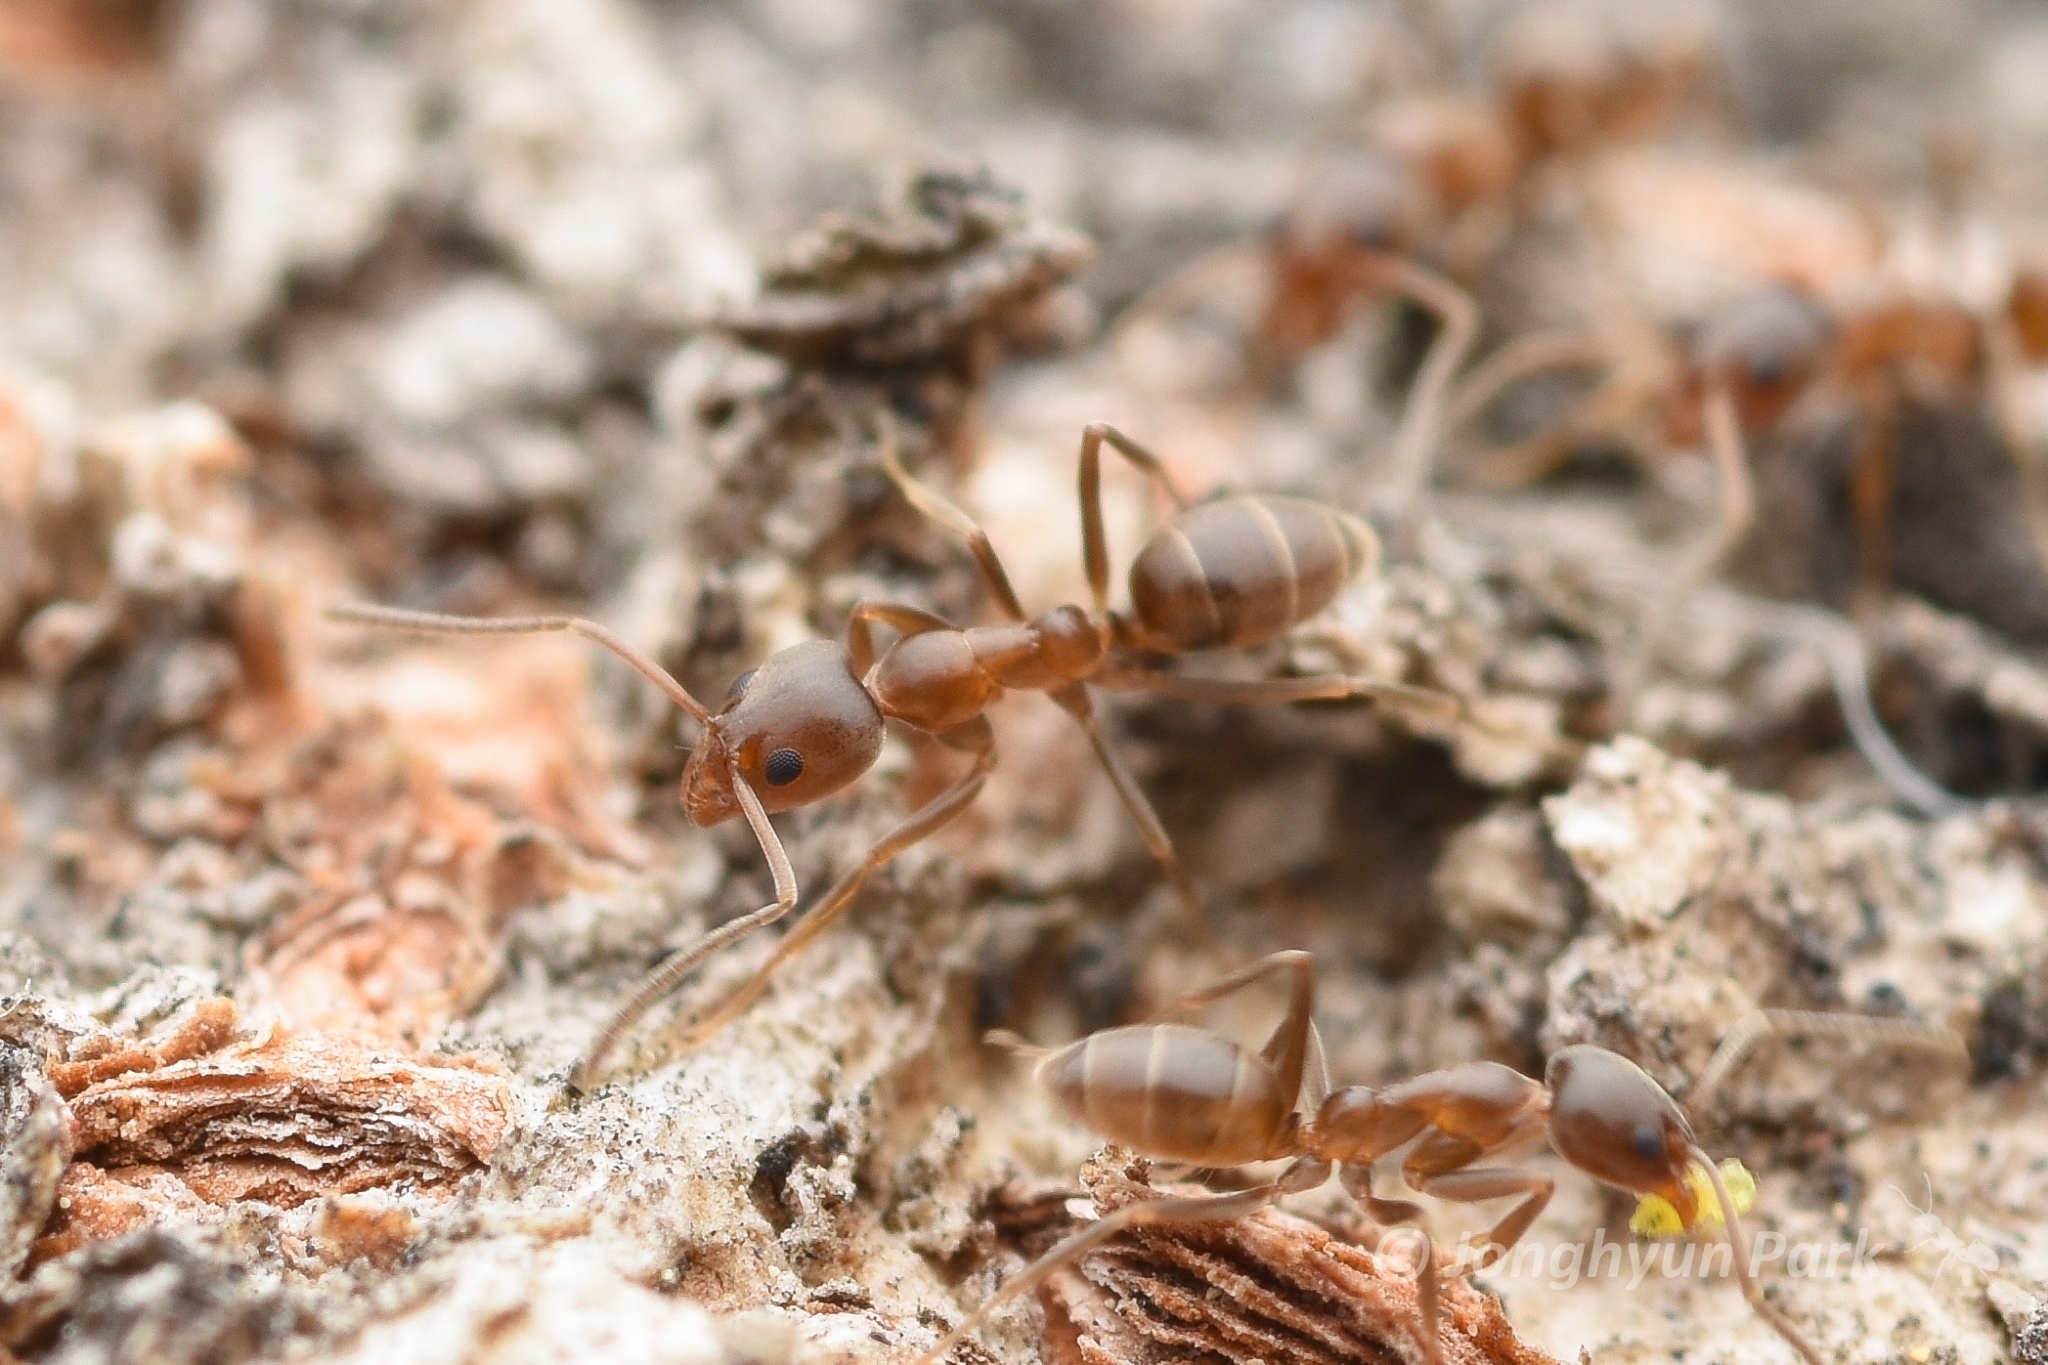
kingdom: Animalia
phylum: Arthropoda
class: Insecta
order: Hymenoptera
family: Formicidae
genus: Linepithema
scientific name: Linepithema humile
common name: Argentine ant
